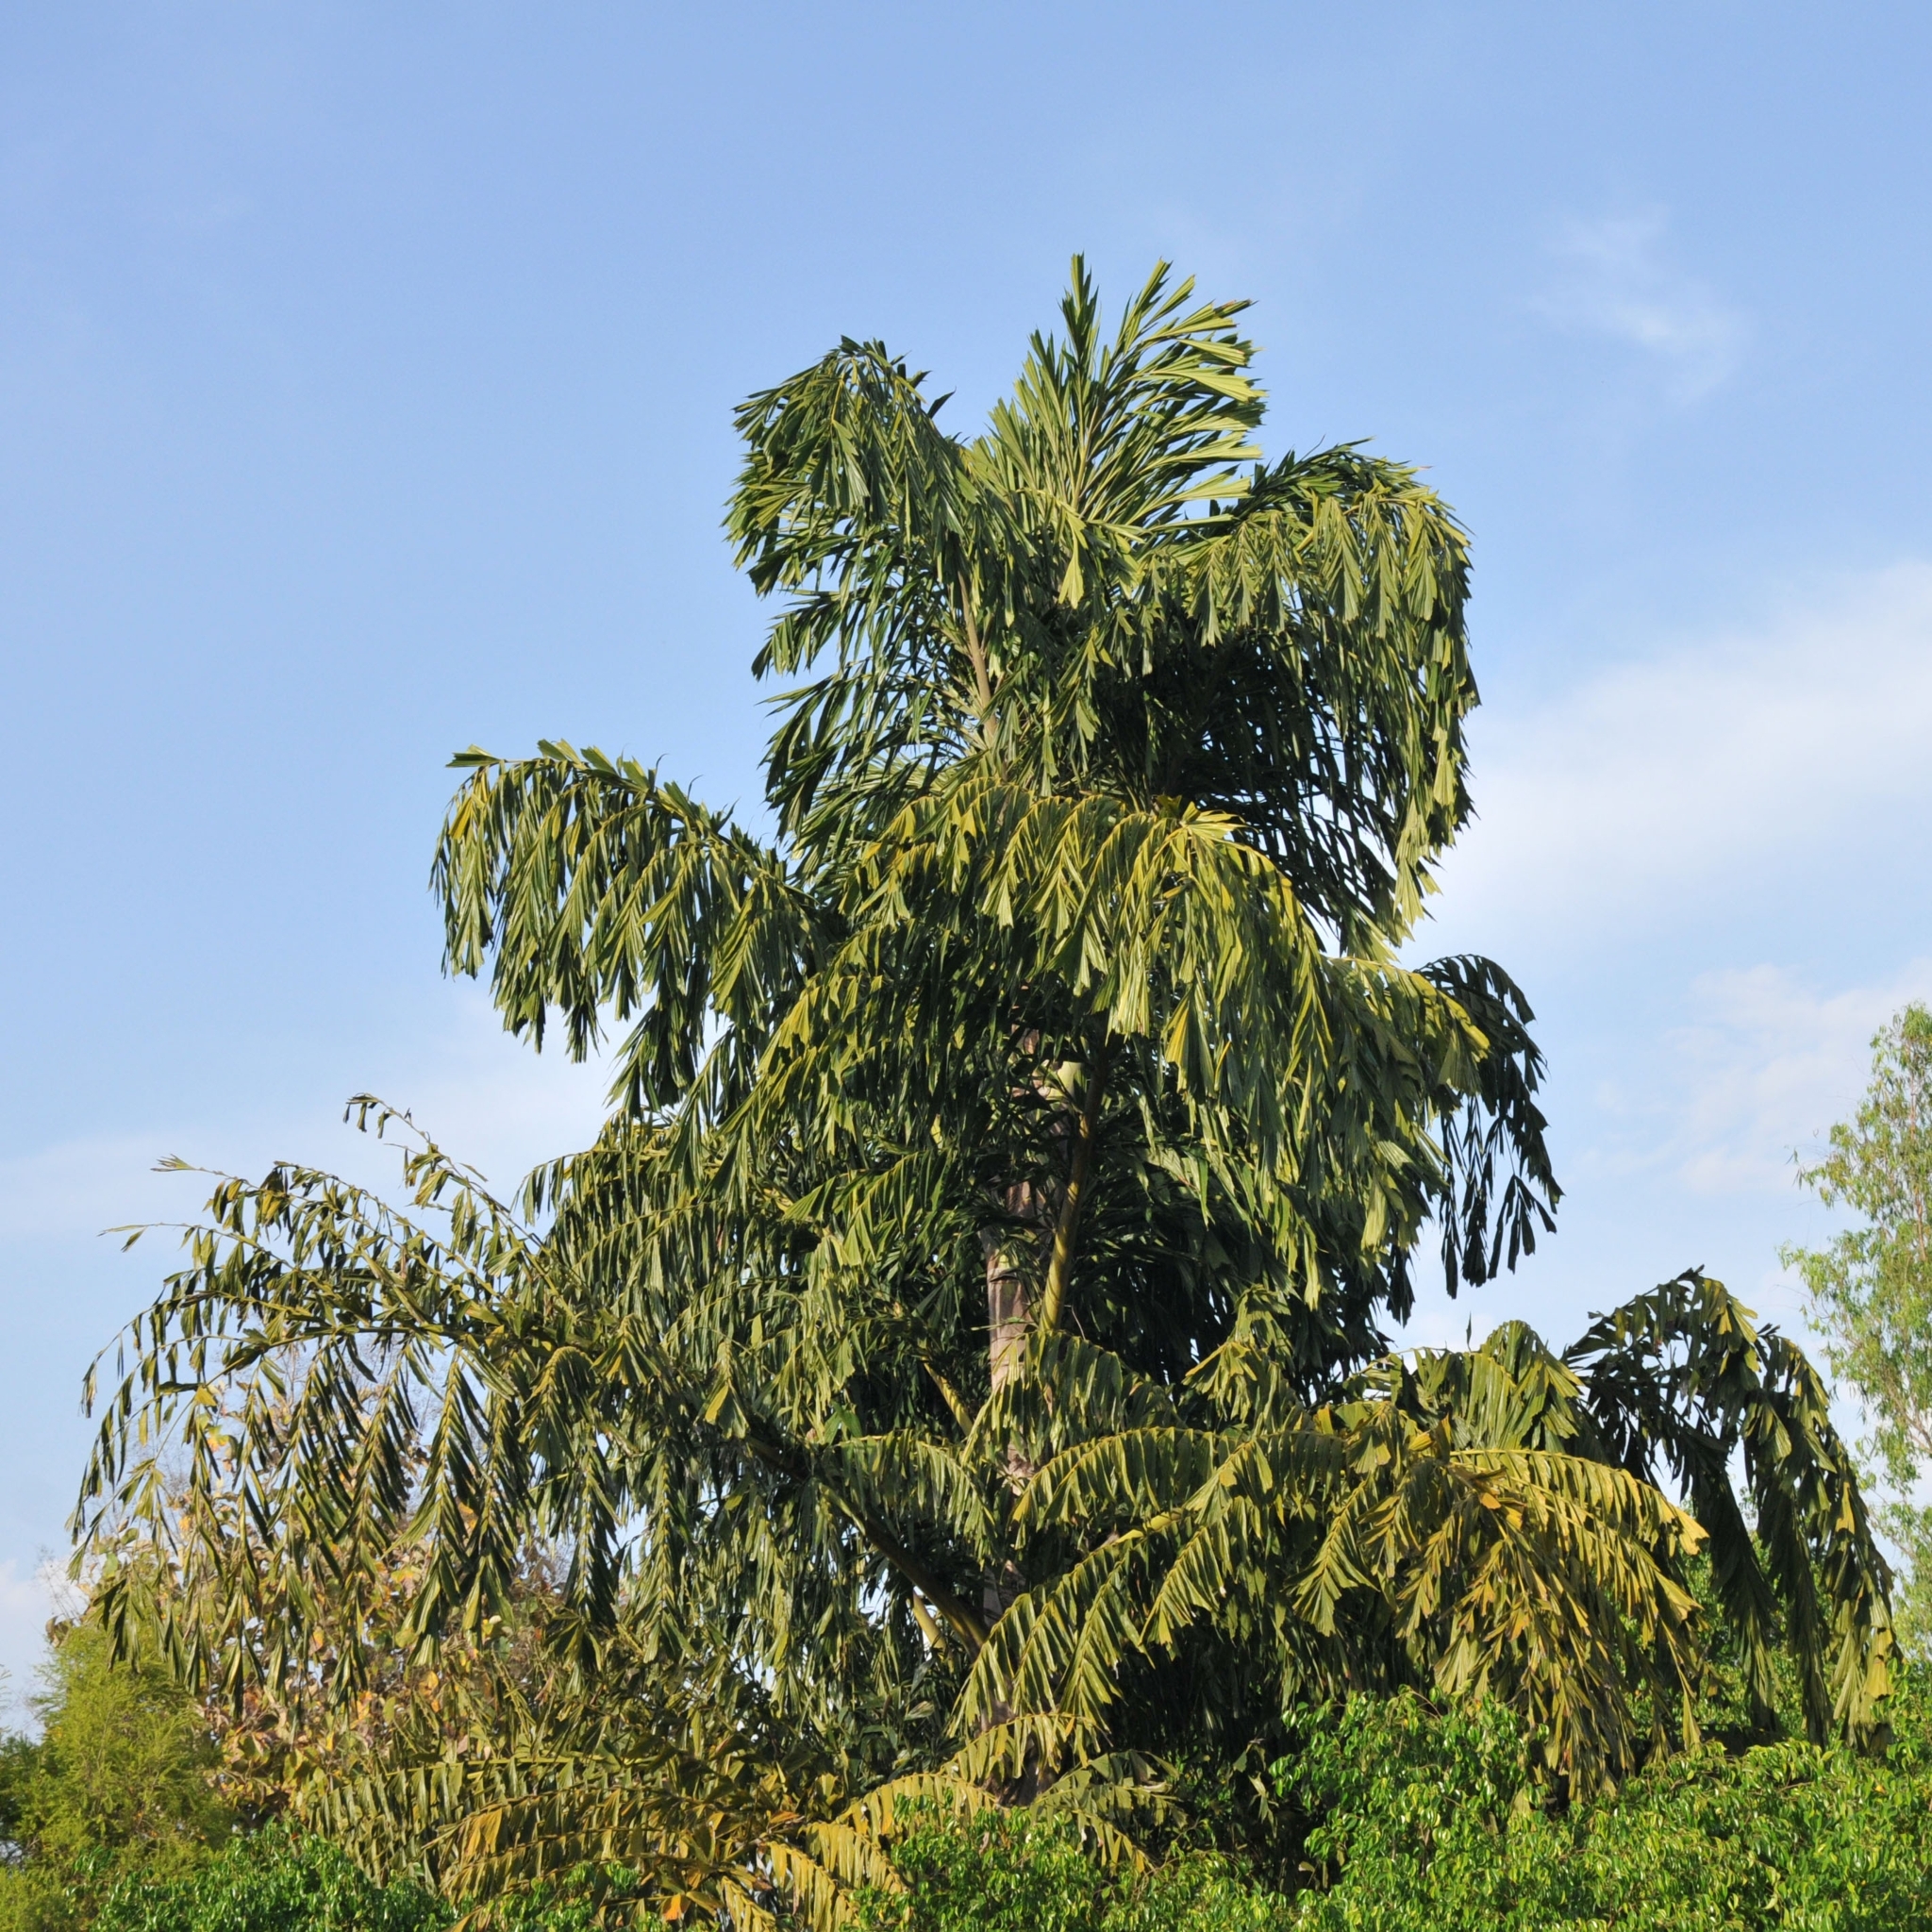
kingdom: Plantae
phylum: Tracheophyta
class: Liliopsida
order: Arecales
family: Arecaceae
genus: Caryota
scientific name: Caryota urens
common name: Jaggery palm
